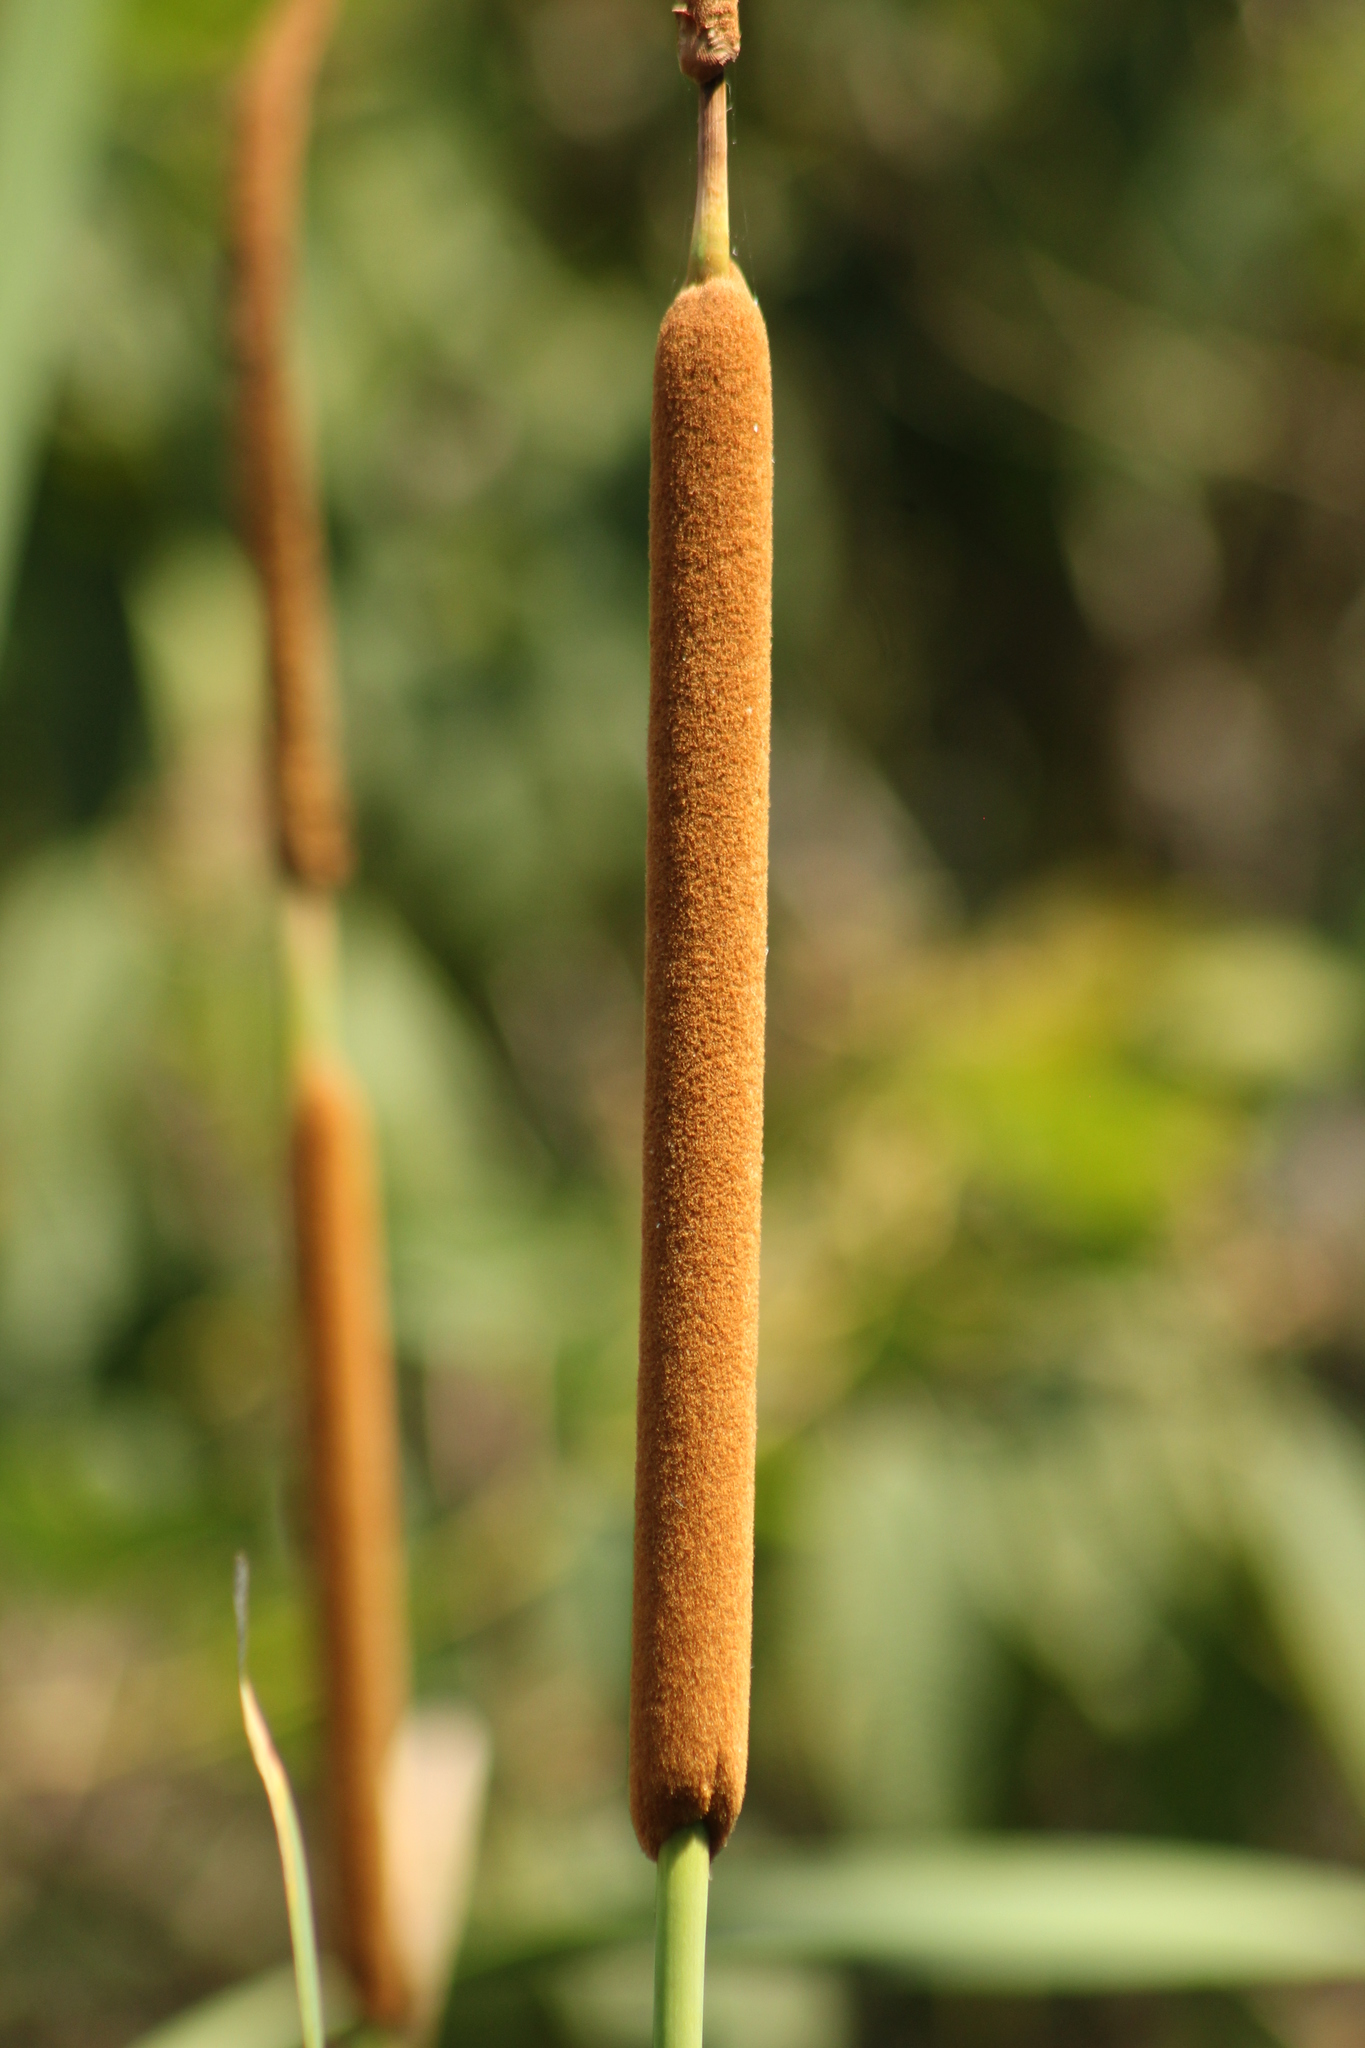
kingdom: Plantae
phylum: Tracheophyta
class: Liliopsida
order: Poales
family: Typhaceae
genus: Typha
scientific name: Typha domingensis
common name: Southern cattail
